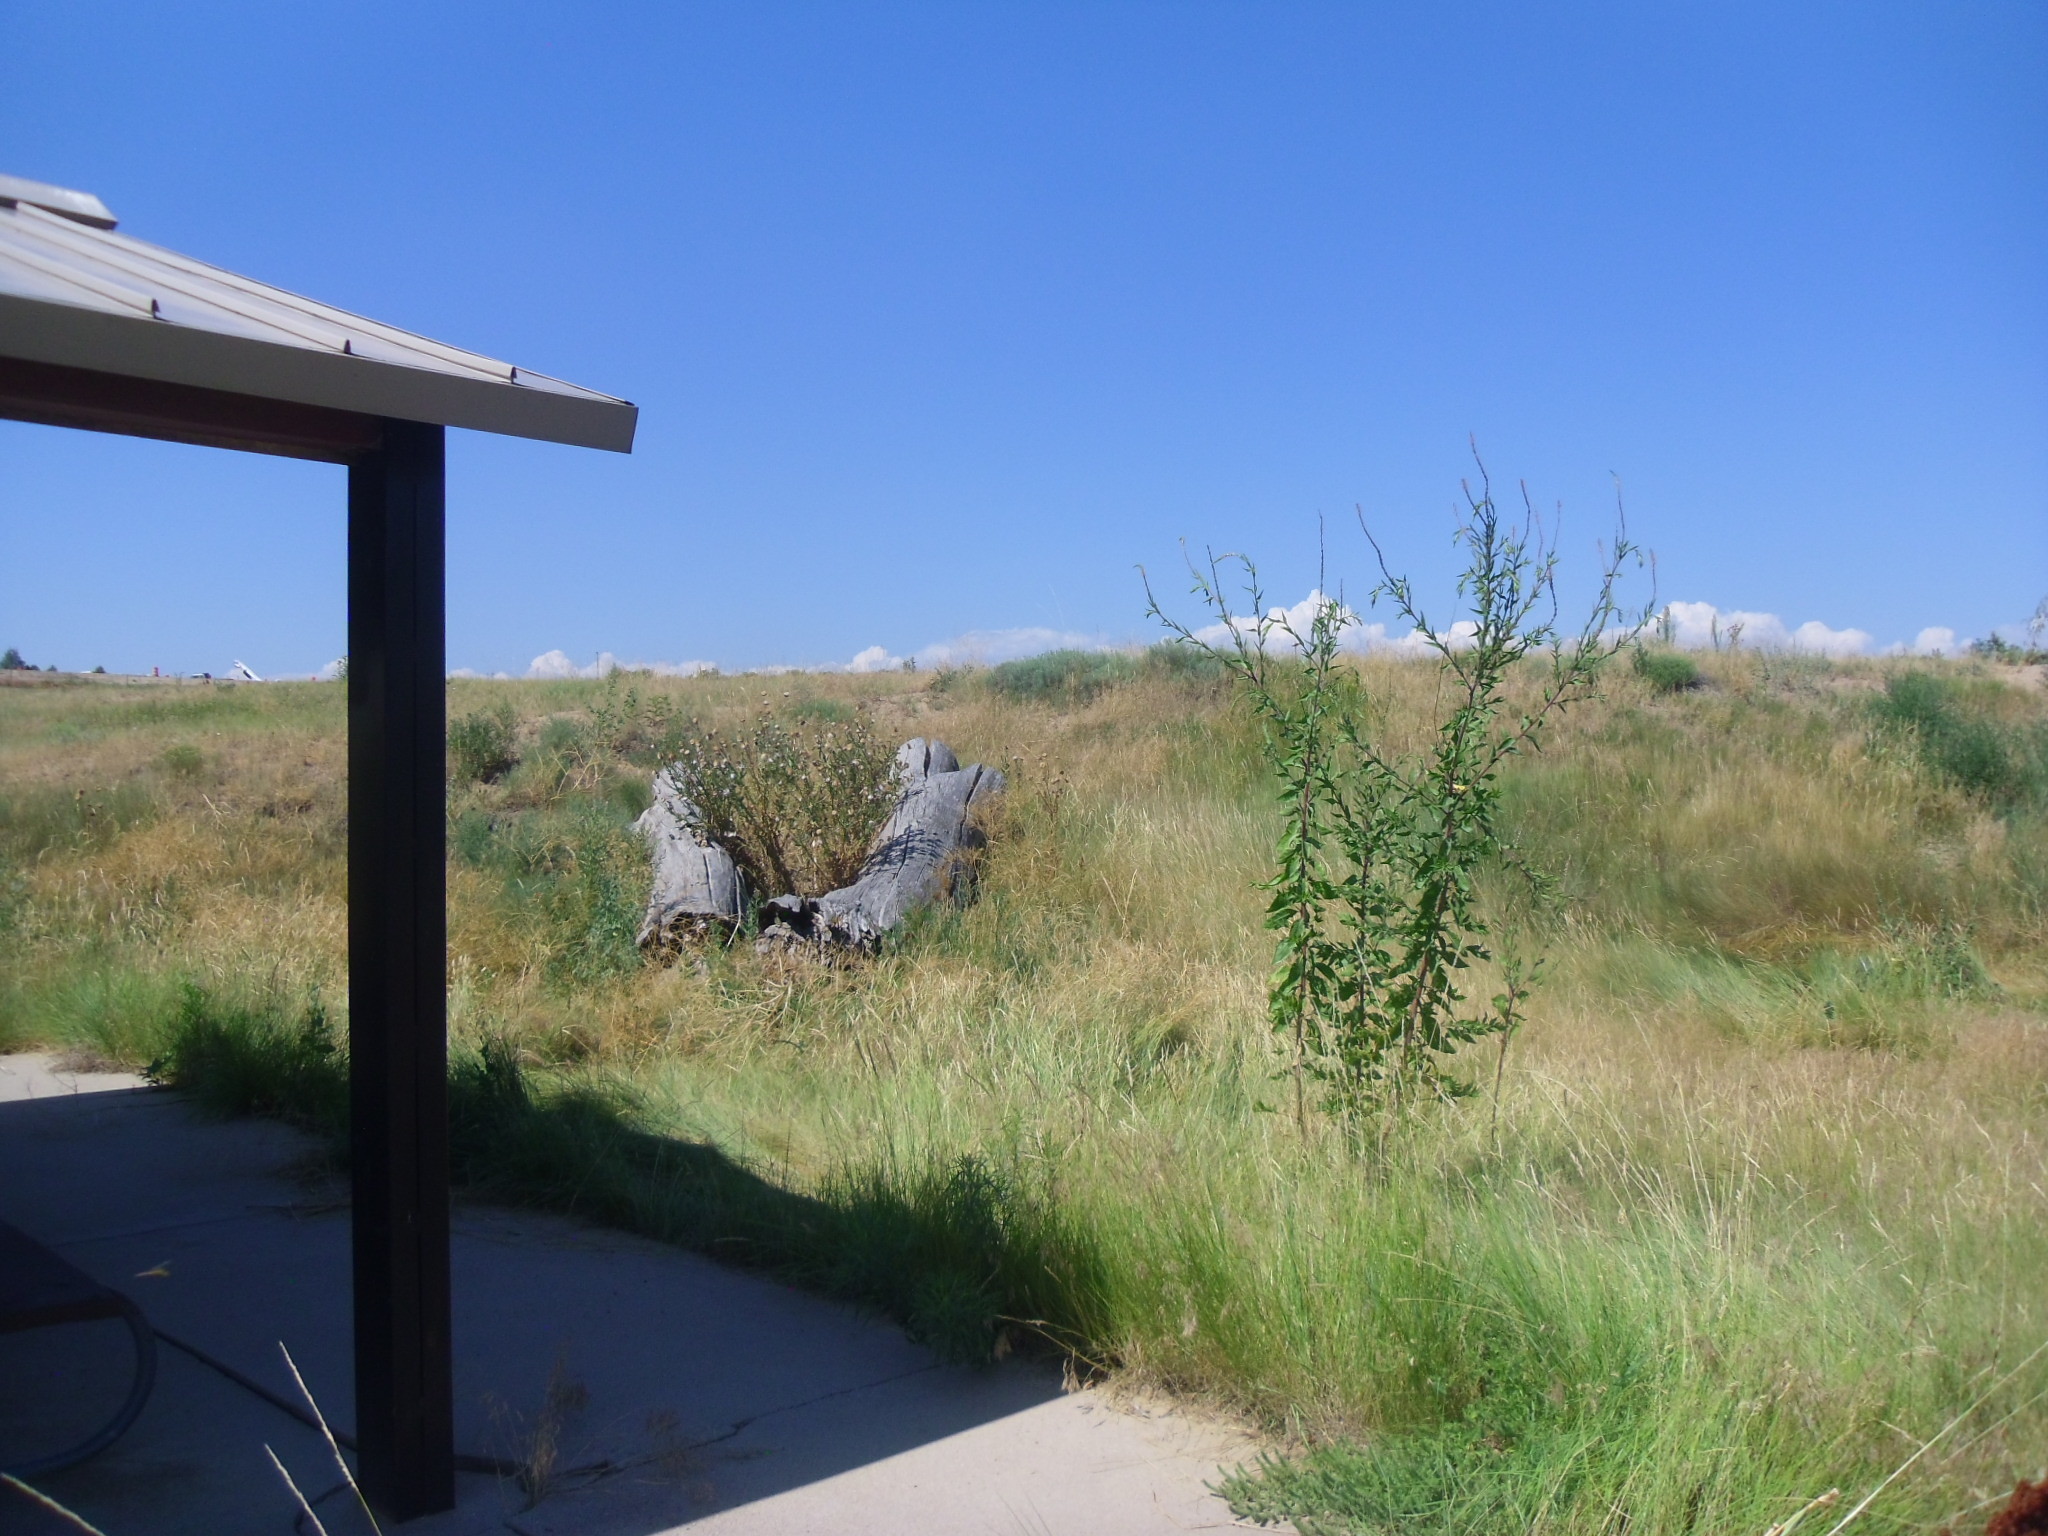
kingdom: Plantae
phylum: Tracheophyta
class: Magnoliopsida
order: Myrtales
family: Onagraceae
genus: Oenothera
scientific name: Oenothera curtiflora
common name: Velvetweed
